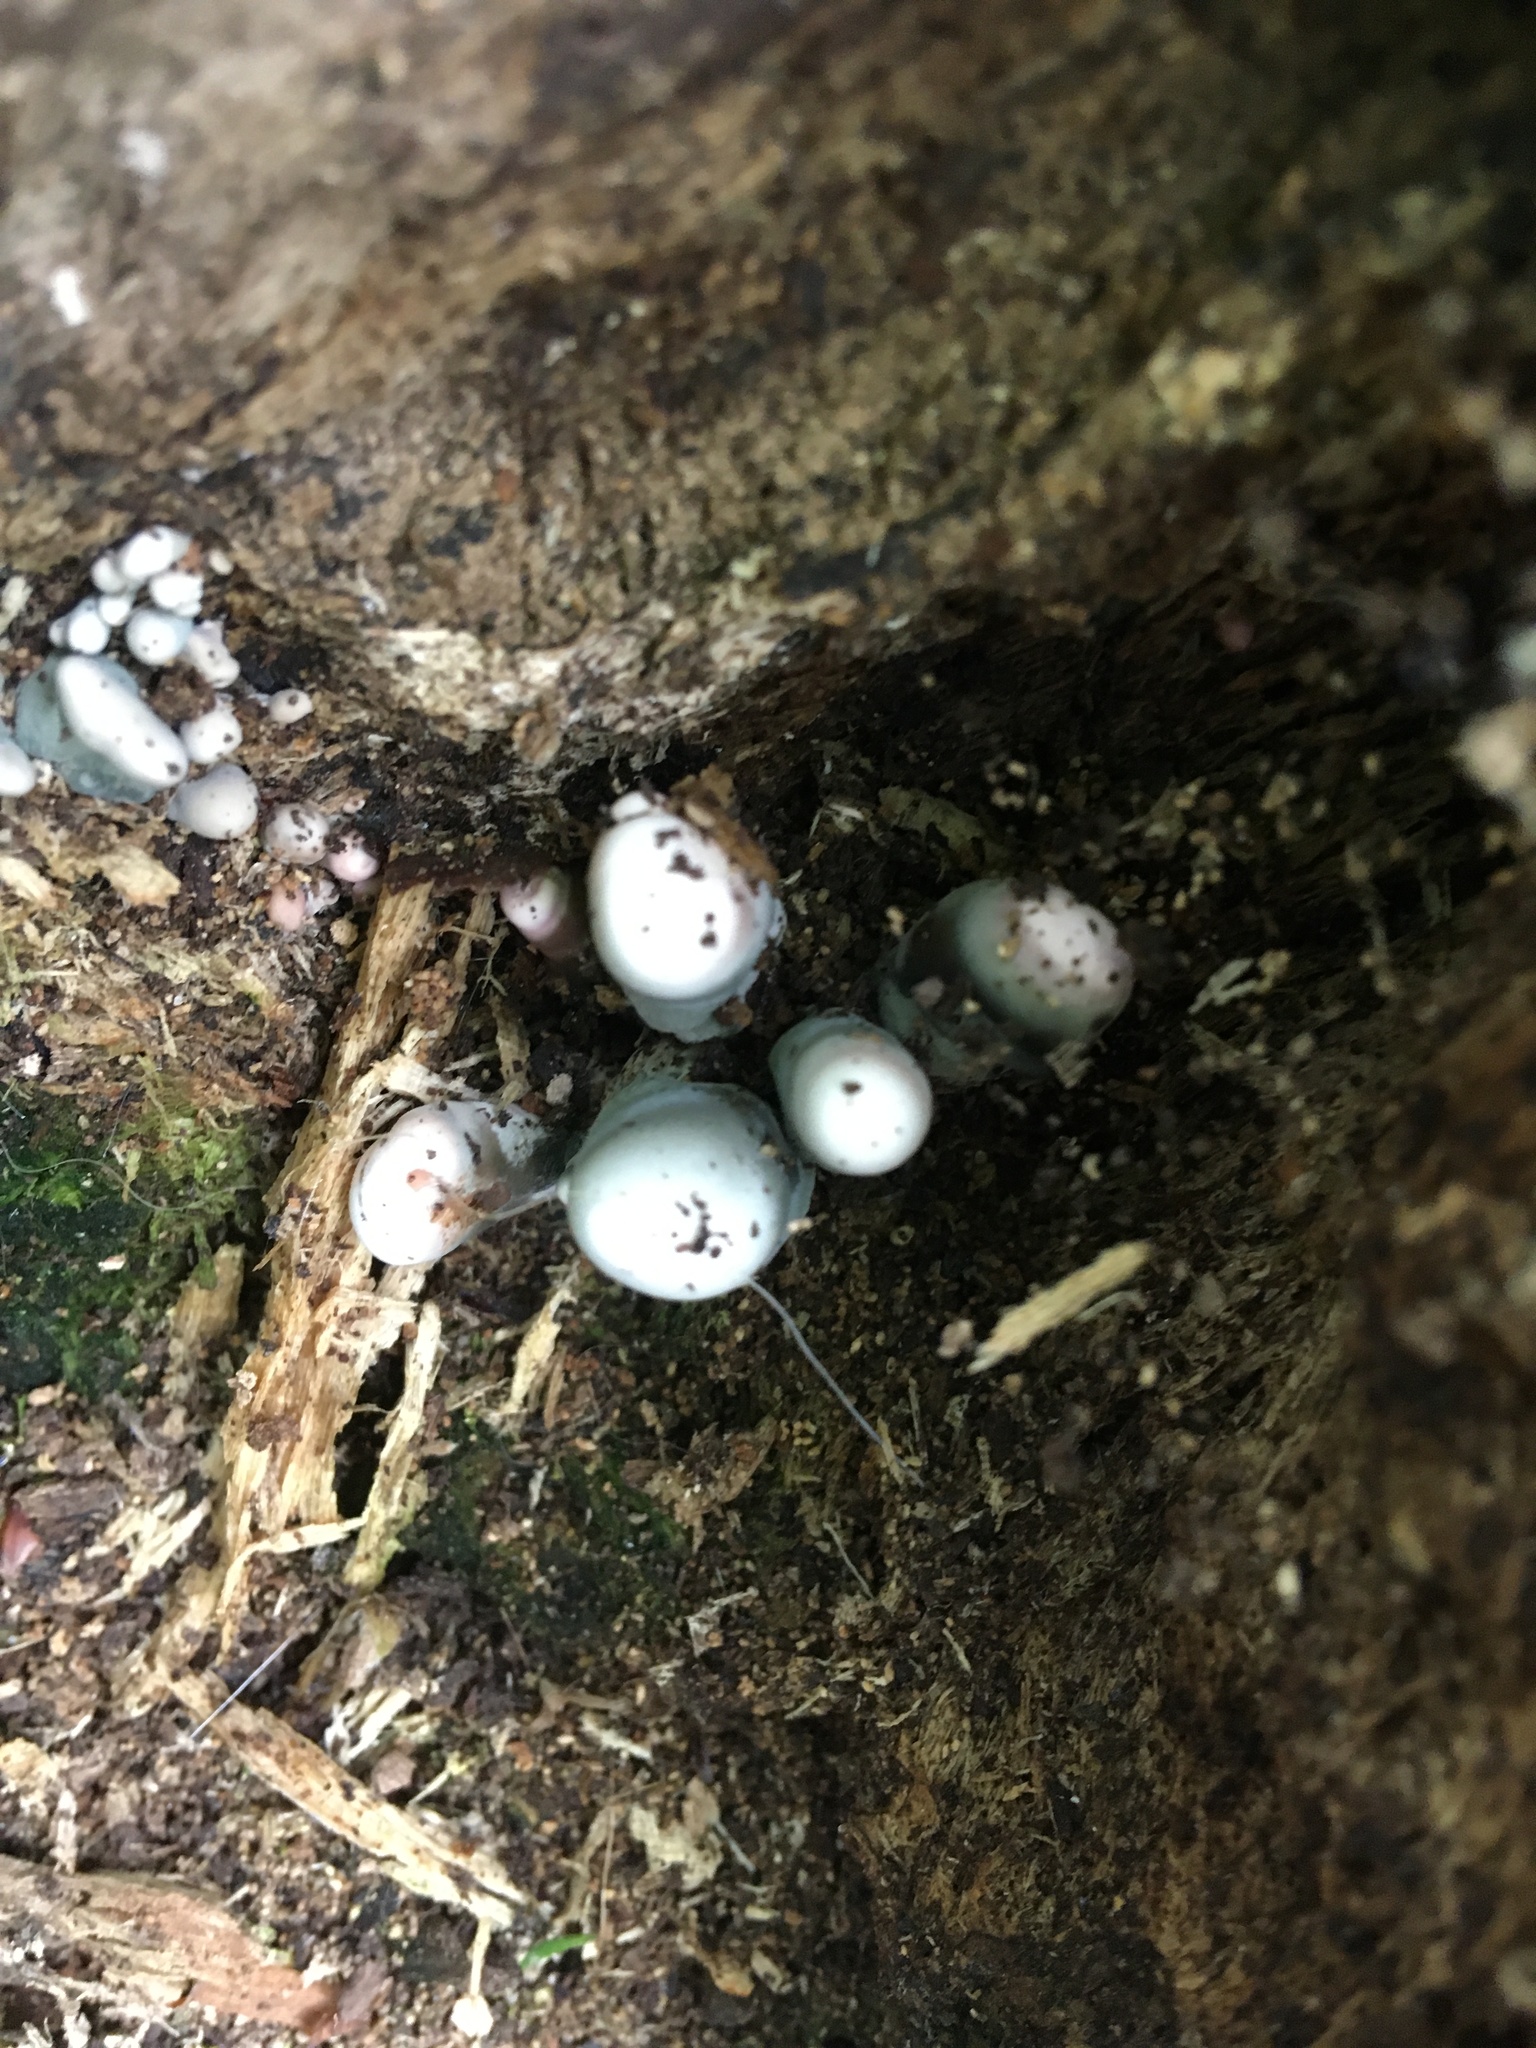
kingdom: Fungi
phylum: Ascomycota
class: Sordariomycetes
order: Xylariales
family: Xylariaceae
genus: Xylaria
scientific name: Xylaria polymorpha
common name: Dead man's fingers
